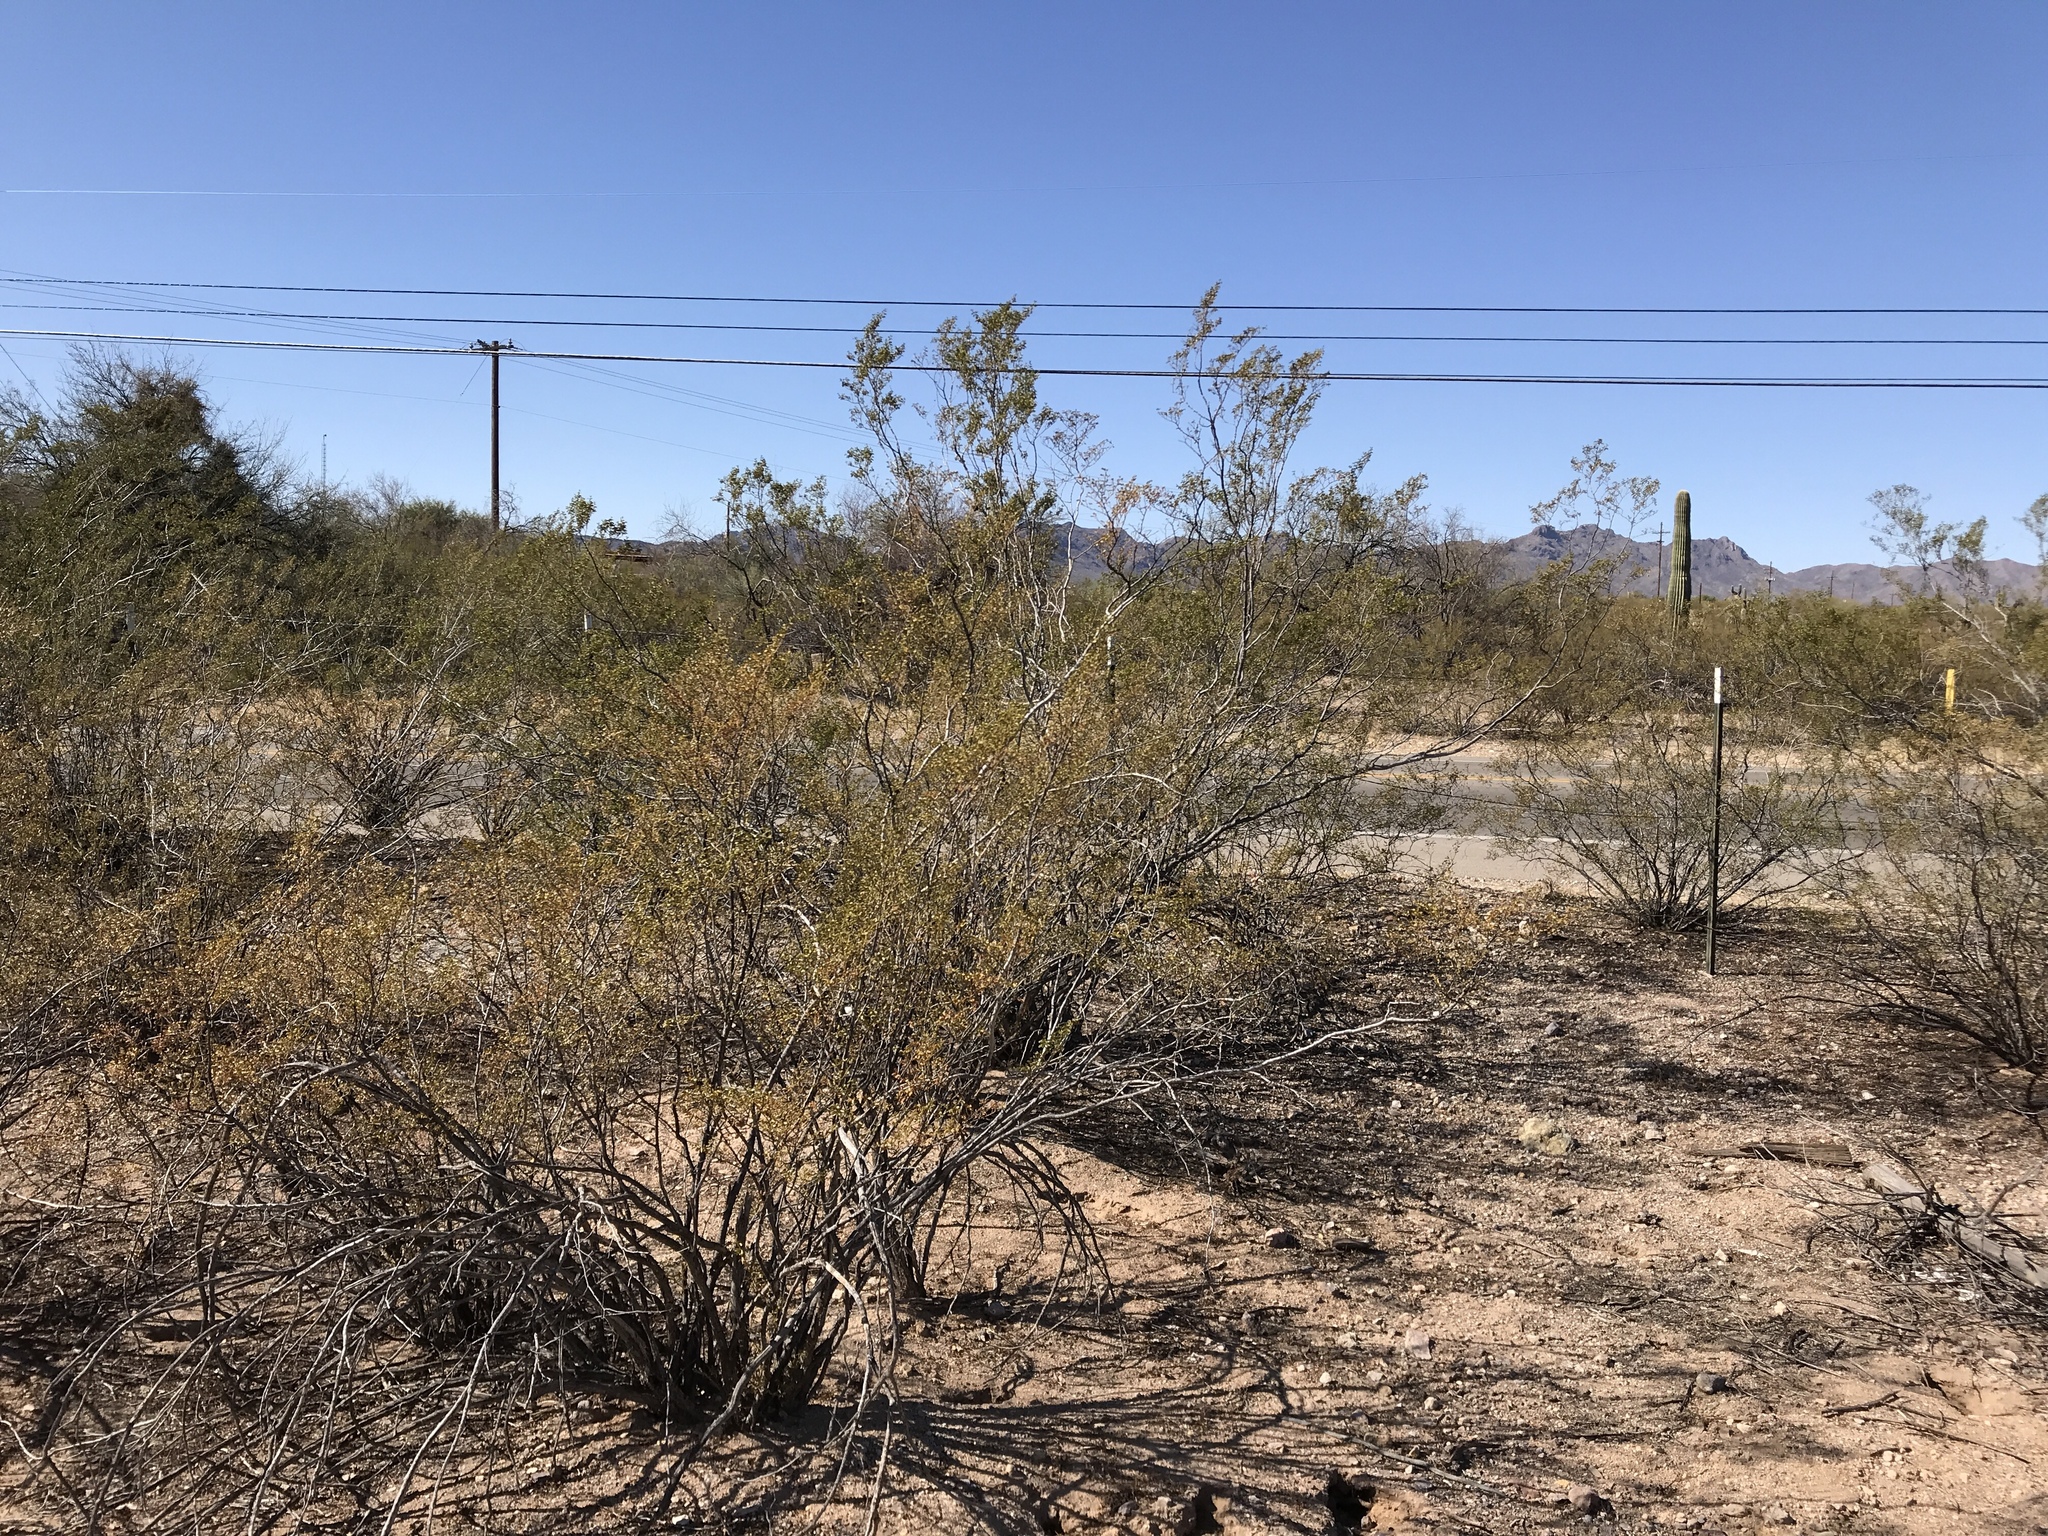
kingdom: Plantae
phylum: Tracheophyta
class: Magnoliopsida
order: Zygophyllales
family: Zygophyllaceae
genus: Larrea
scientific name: Larrea tridentata
